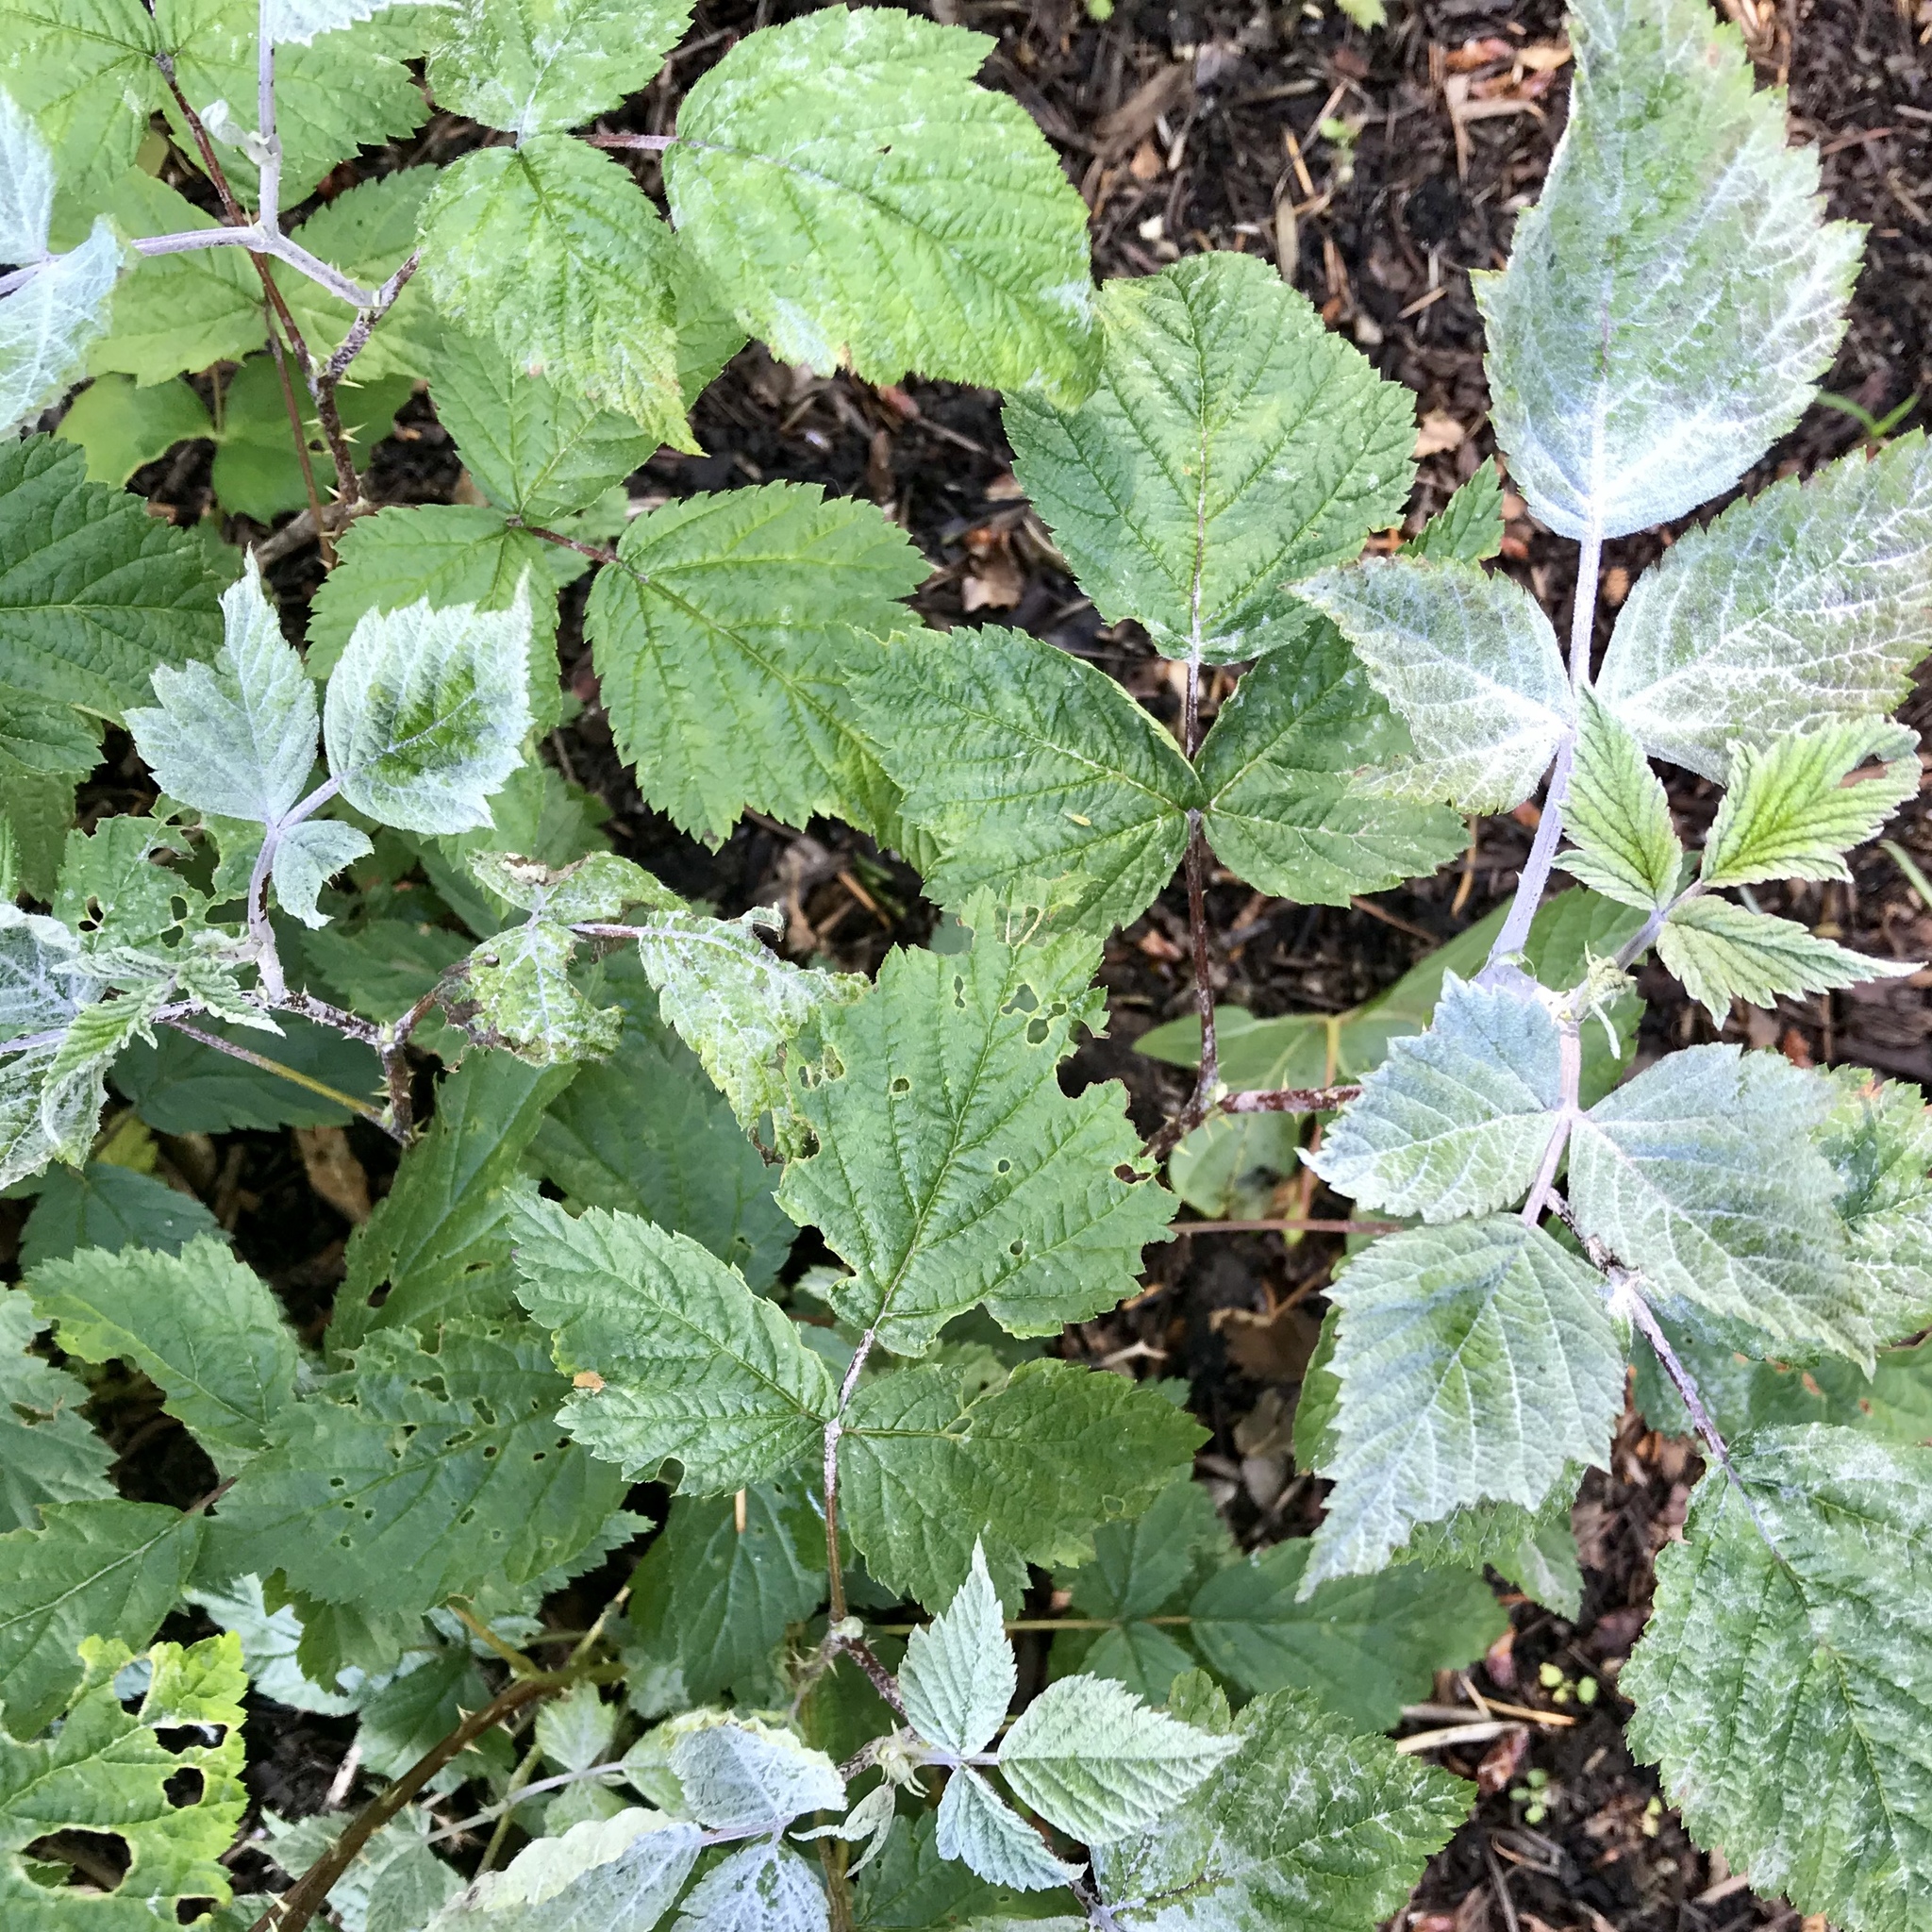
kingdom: Fungi
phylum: Ascomycota
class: Leotiomycetes
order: Helotiales
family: Erysiphaceae
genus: Podosphaera
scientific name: Podosphaera aphanis
